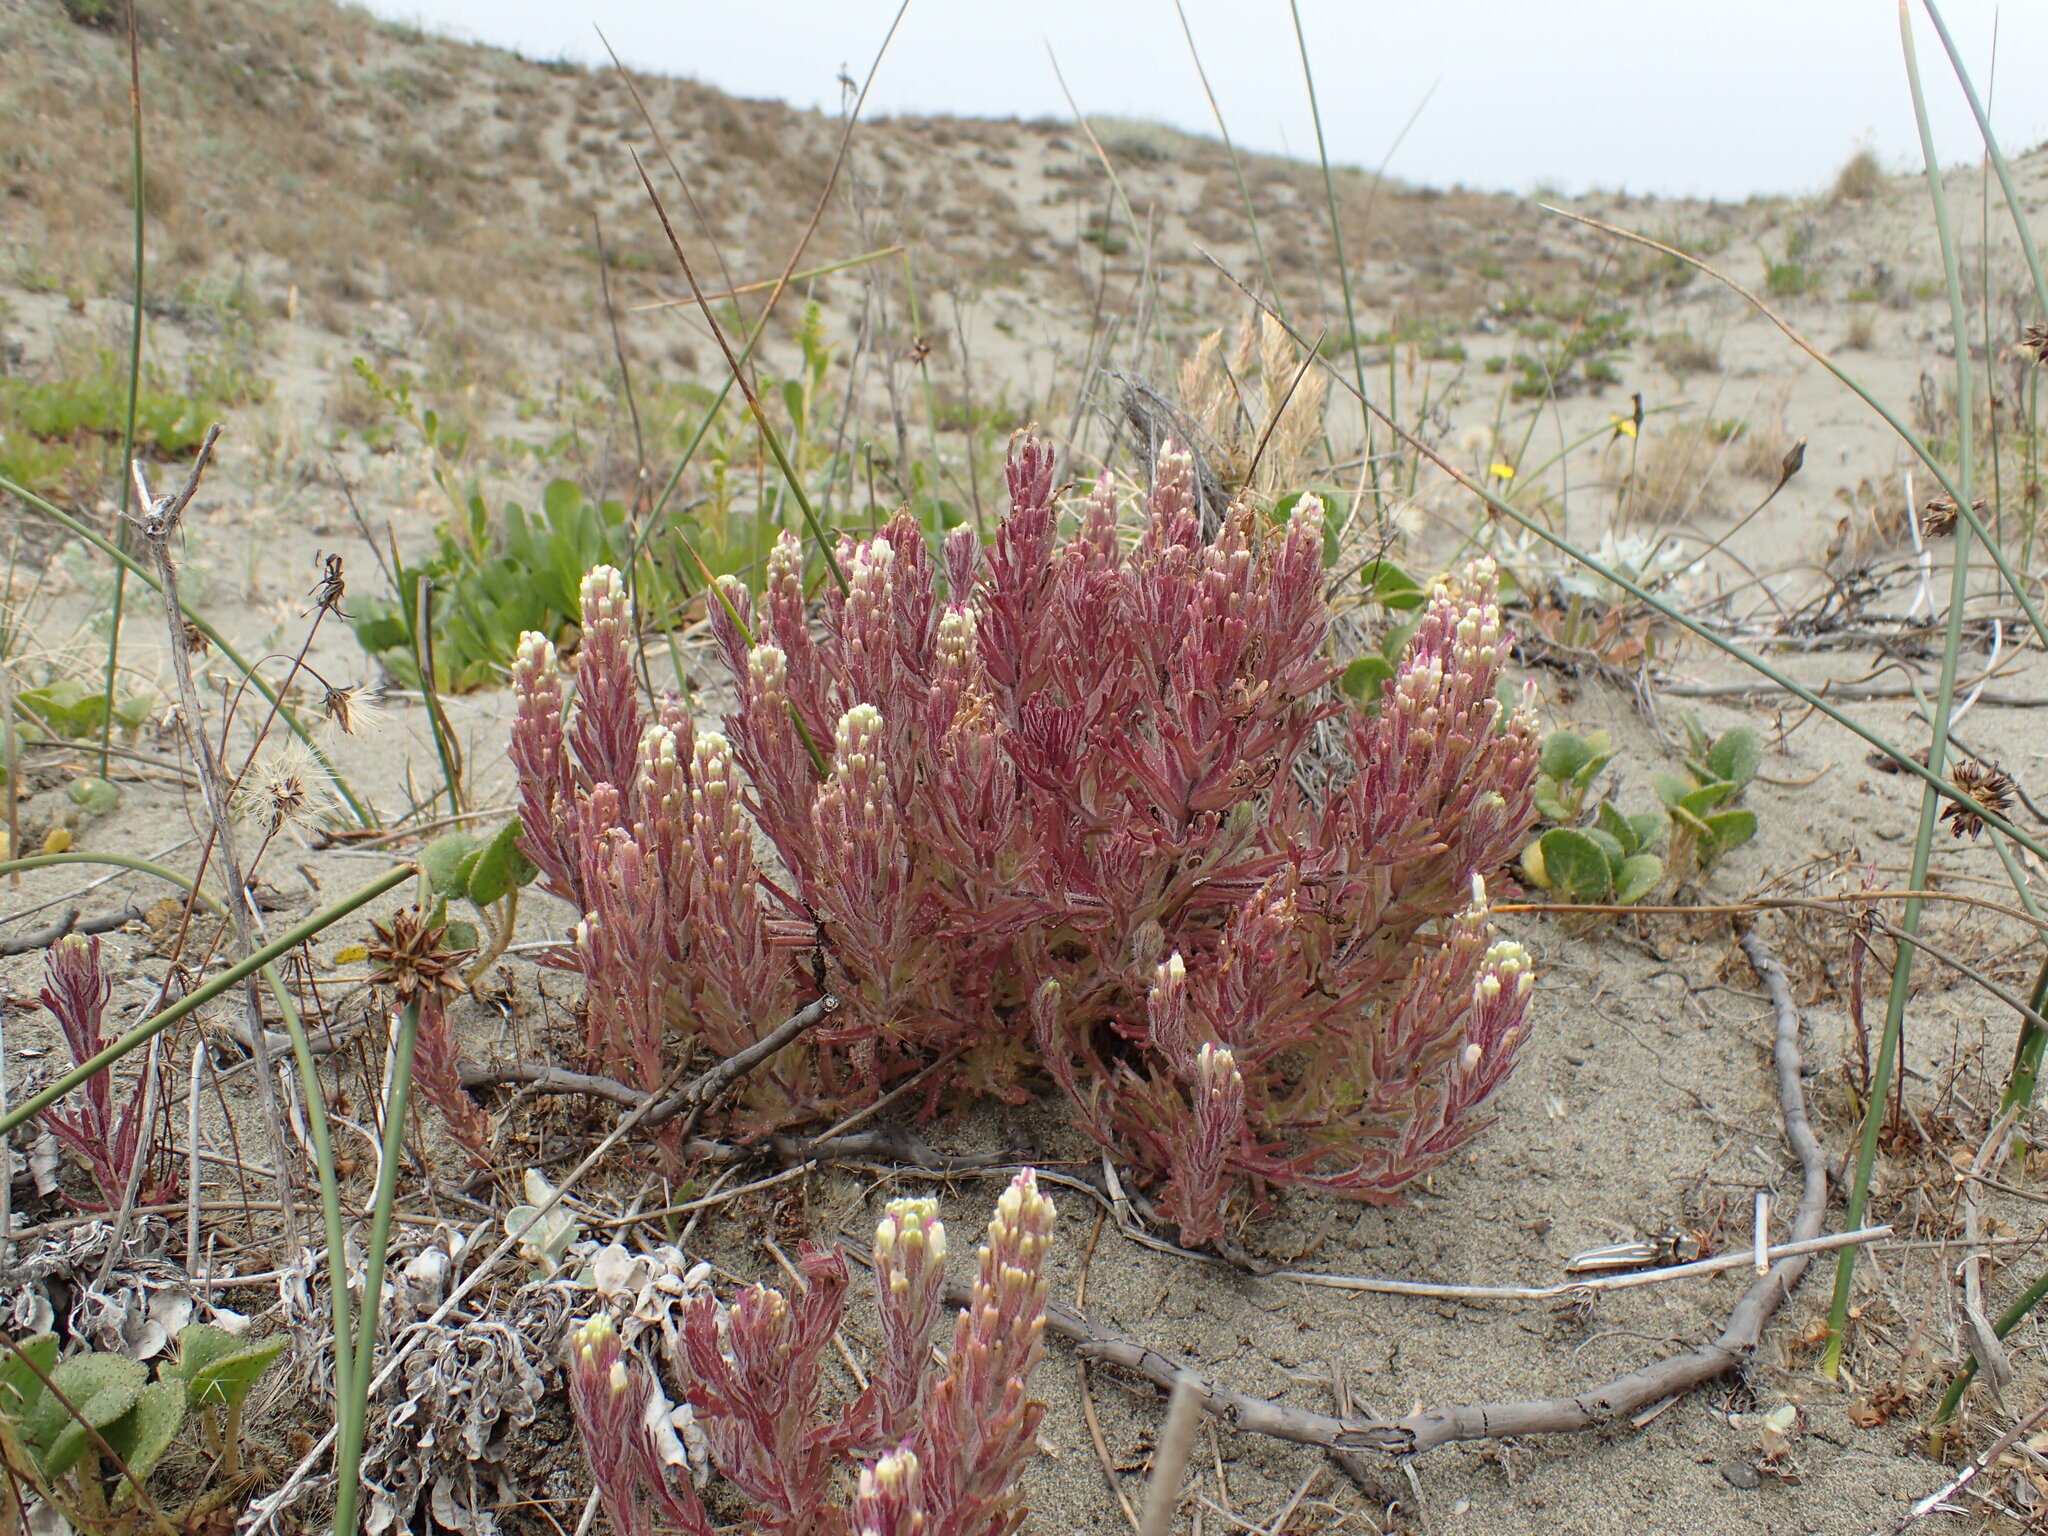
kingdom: Plantae
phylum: Tracheophyta
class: Magnoliopsida
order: Lamiales
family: Orobanchaceae
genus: Castilleja
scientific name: Castilleja exserta
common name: Purple owl-clover
